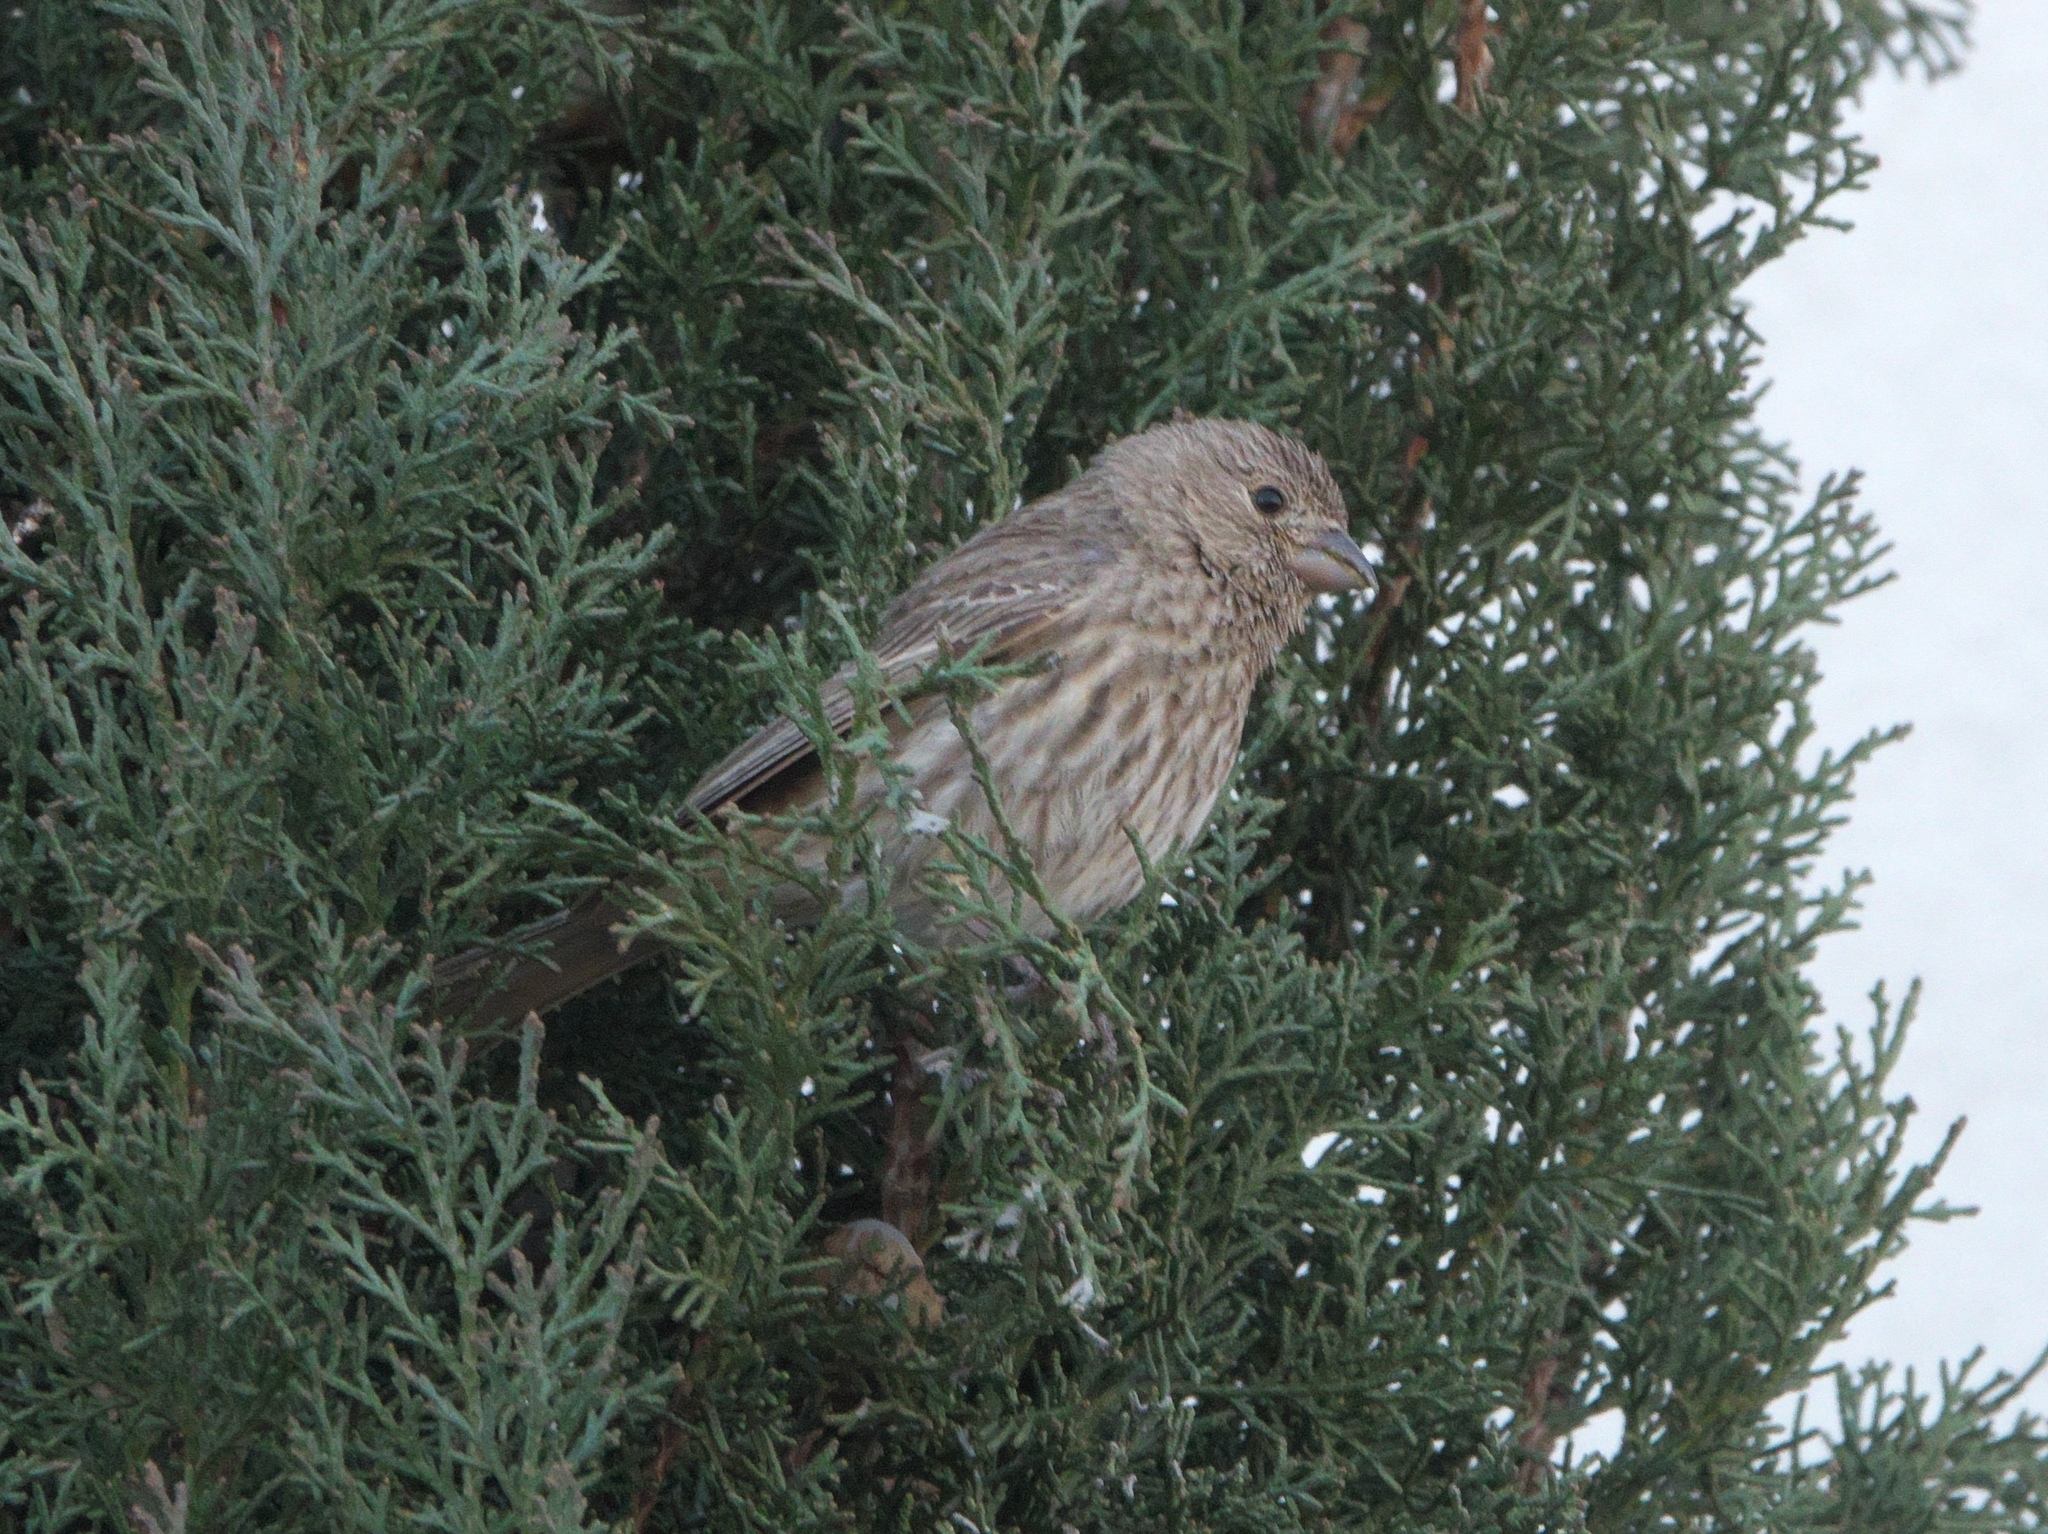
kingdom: Animalia
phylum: Chordata
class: Aves
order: Passeriformes
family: Fringillidae
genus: Haemorhous
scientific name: Haemorhous mexicanus
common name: House finch
